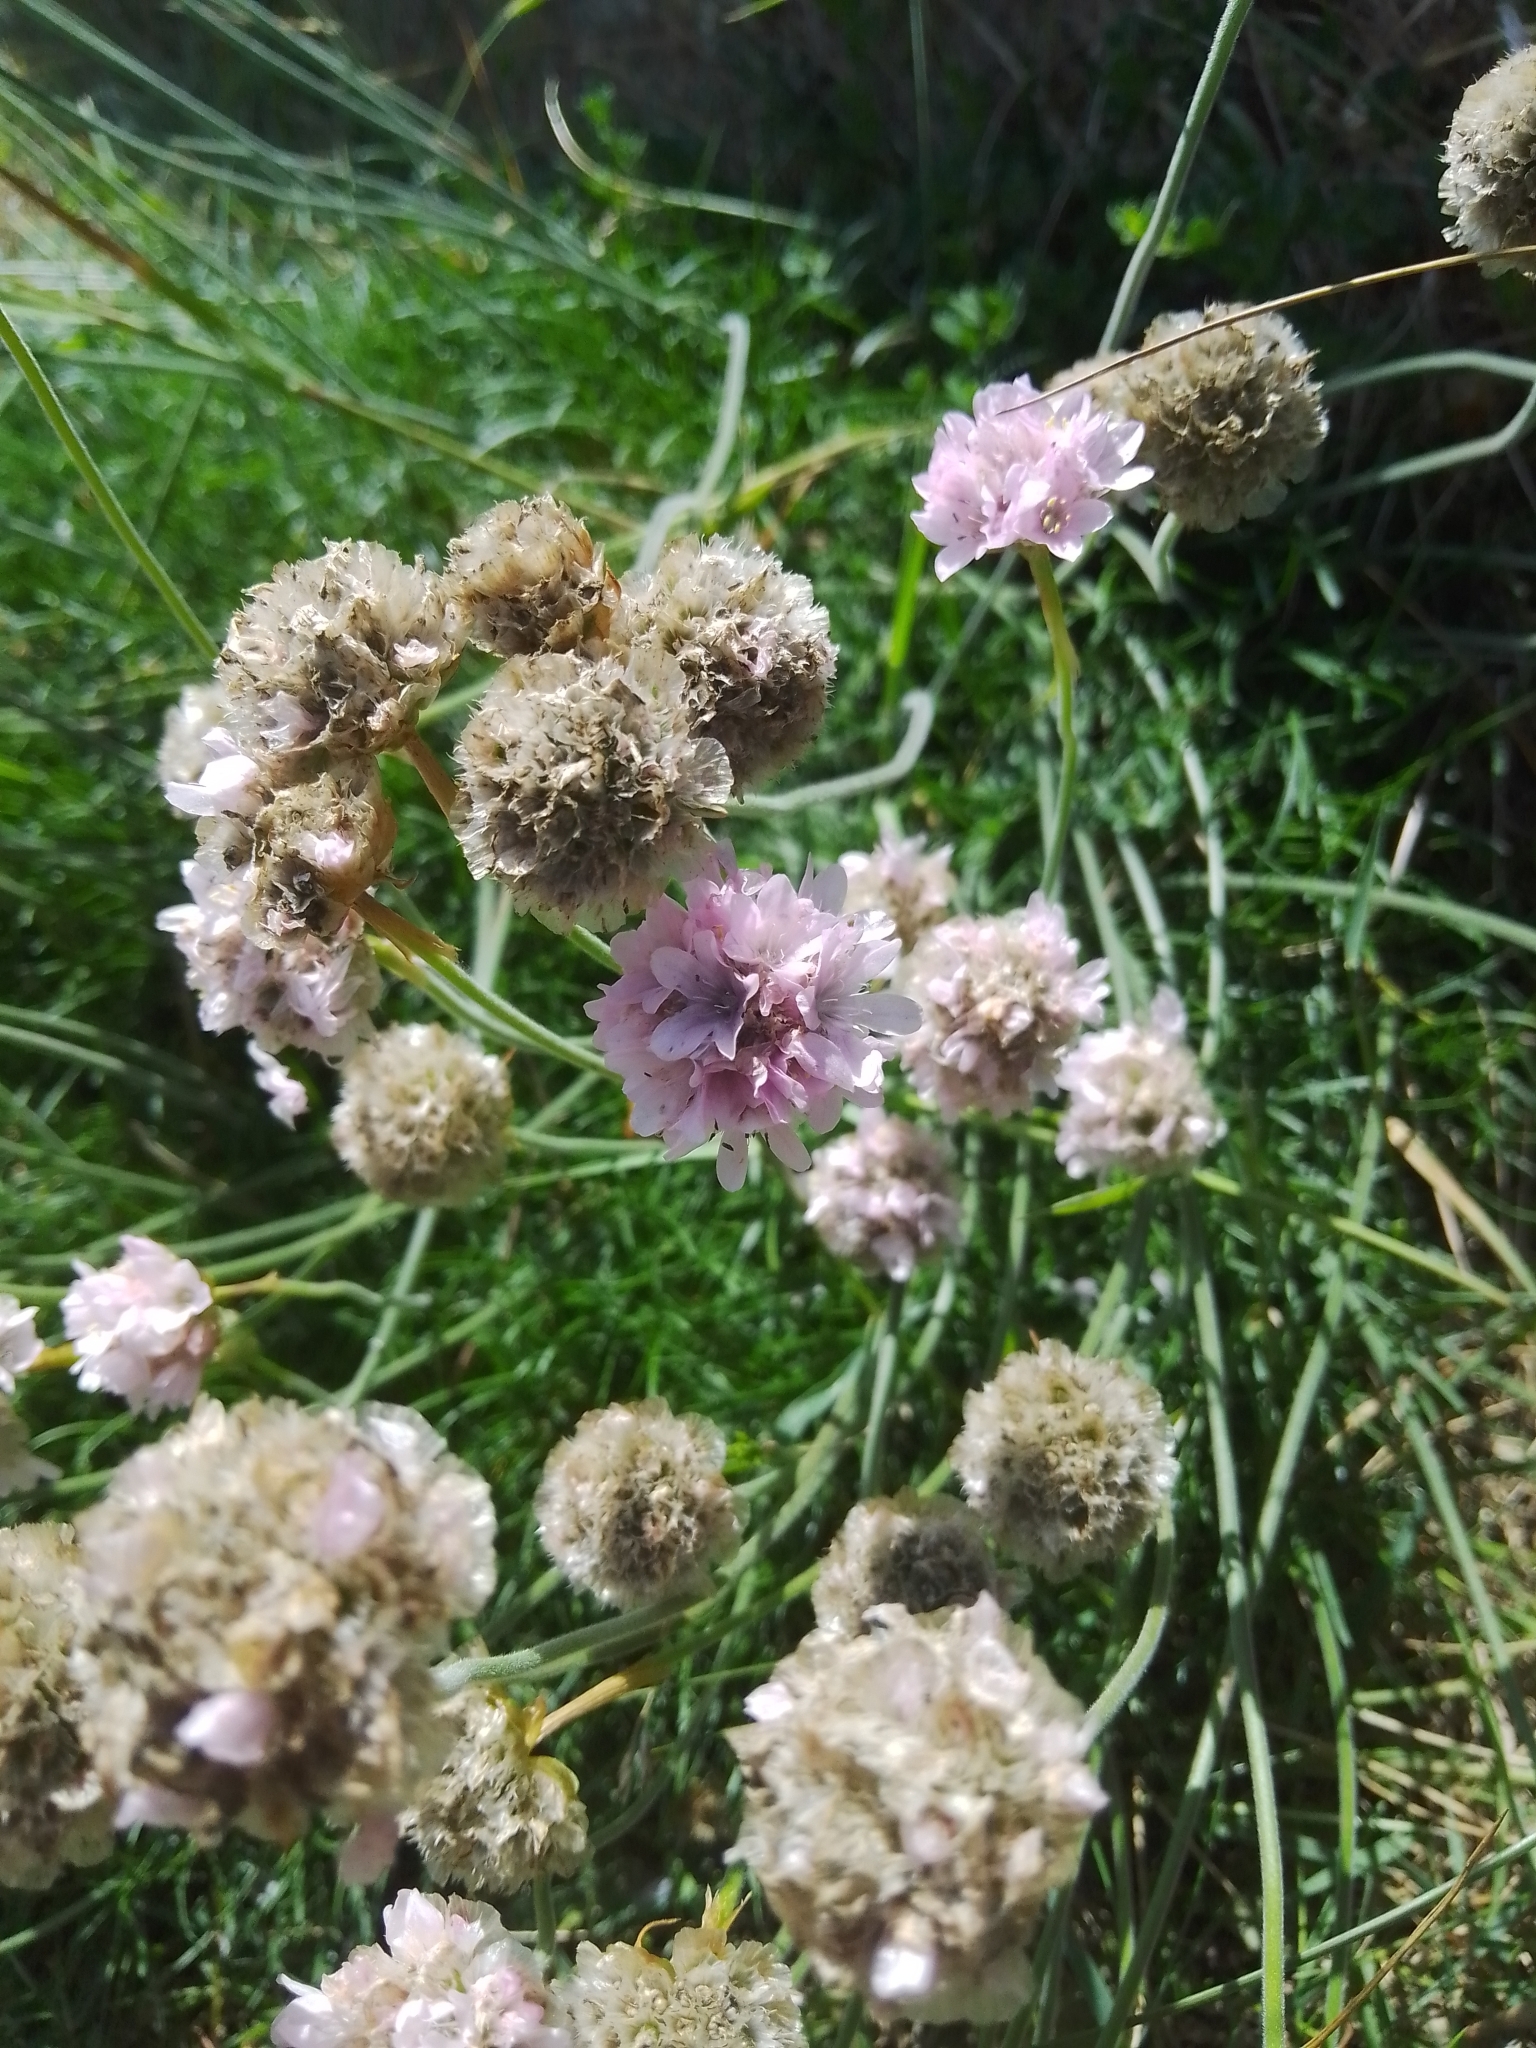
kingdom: Plantae
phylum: Tracheophyta
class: Magnoliopsida
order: Caryophyllales
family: Plumbaginaceae
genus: Armeria
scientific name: Armeria maritima
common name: Thrift
